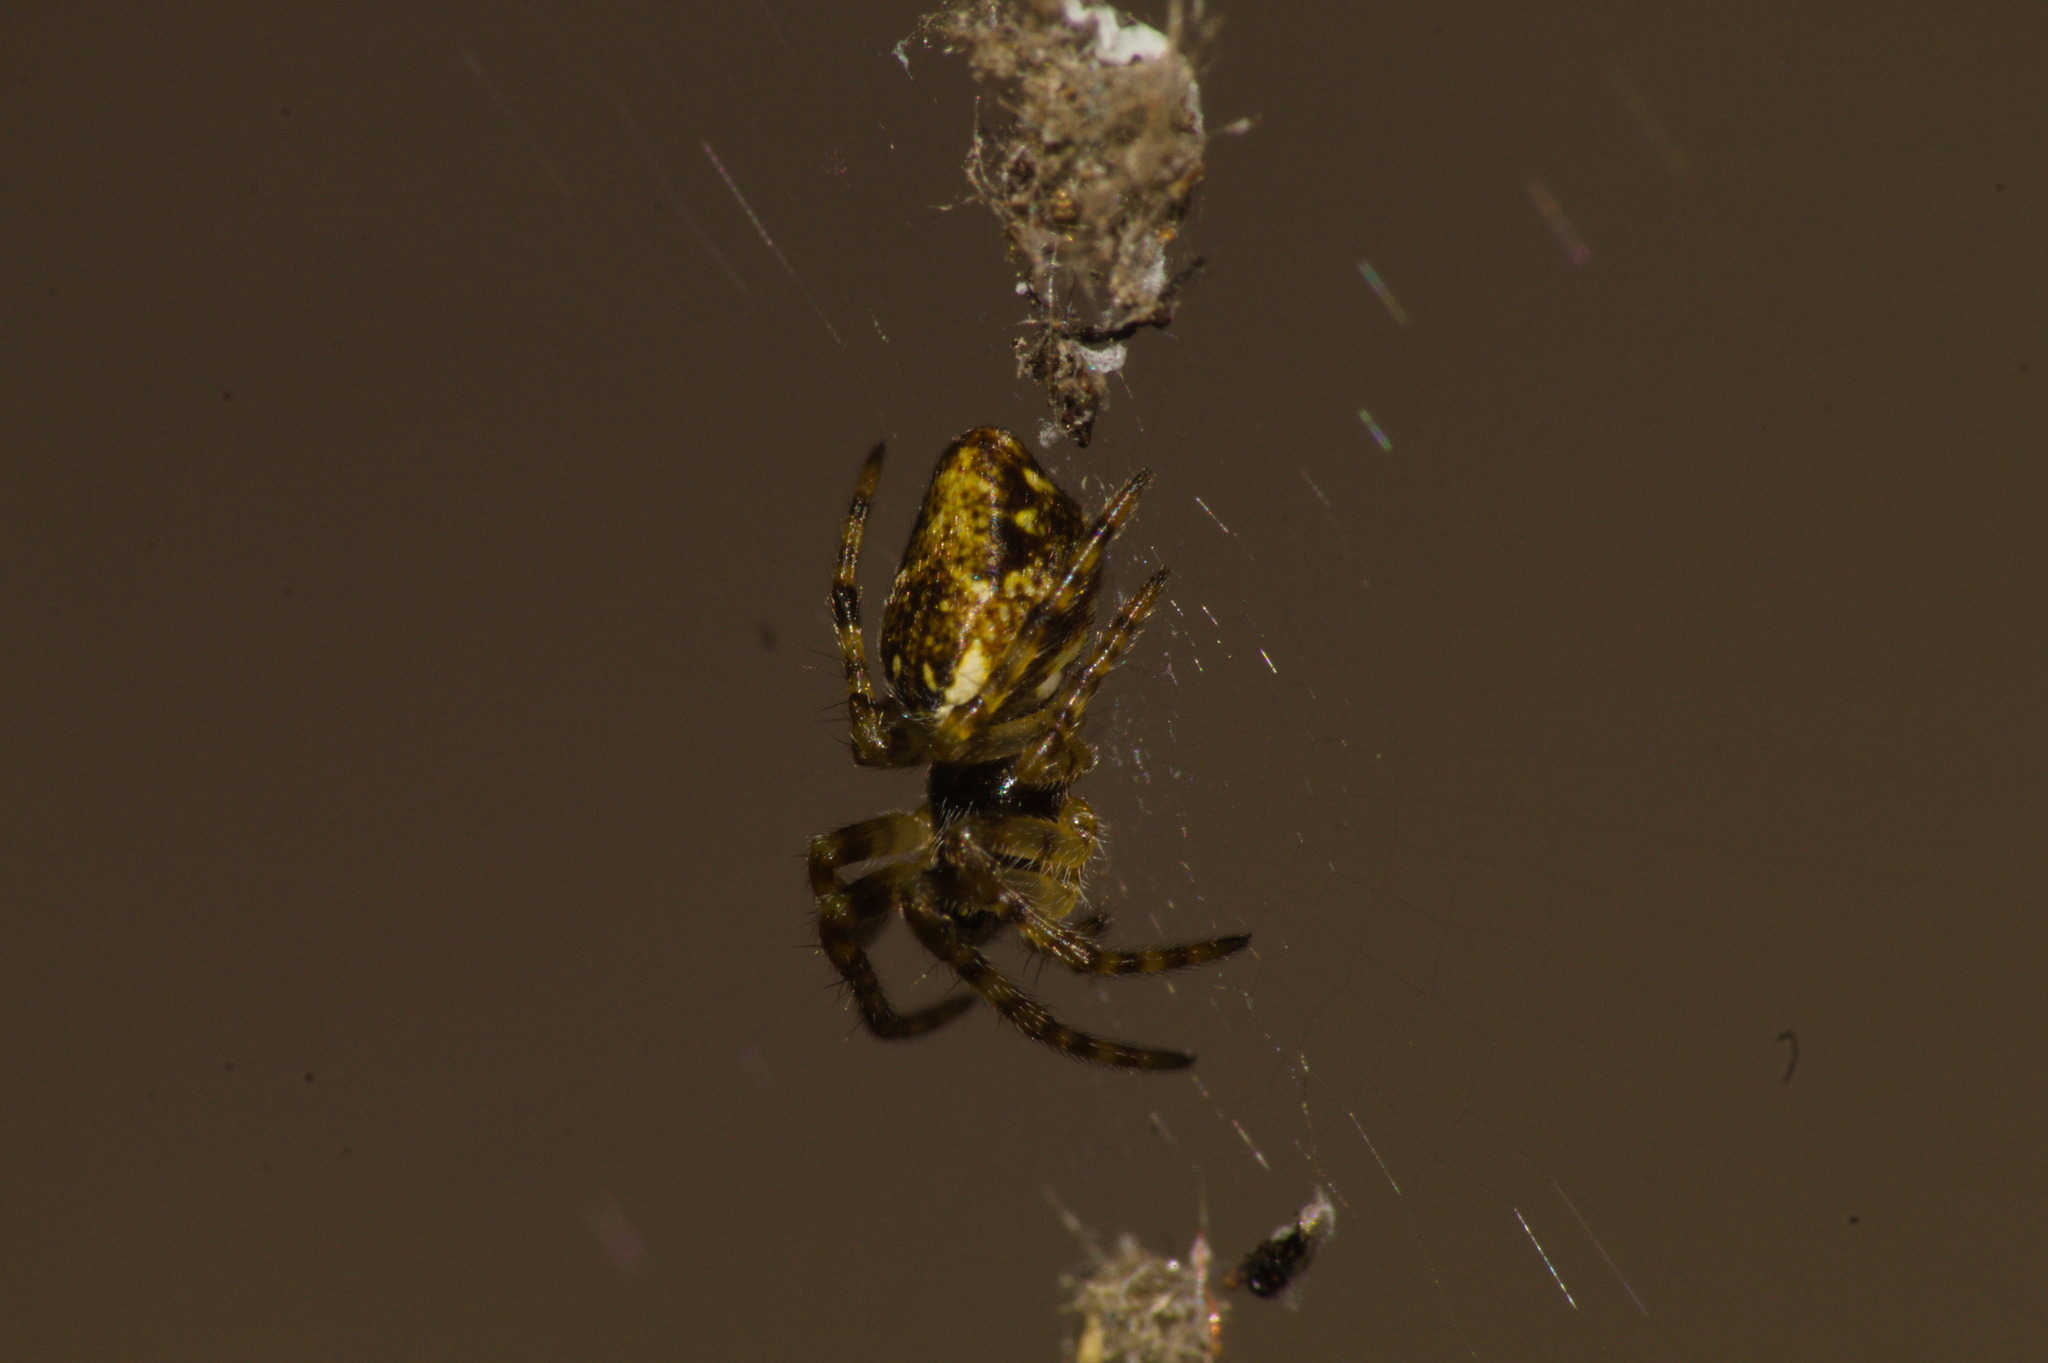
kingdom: Animalia
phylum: Arthropoda
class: Arachnida
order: Araneae
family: Araneidae
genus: Cyclosa
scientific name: Cyclosa
